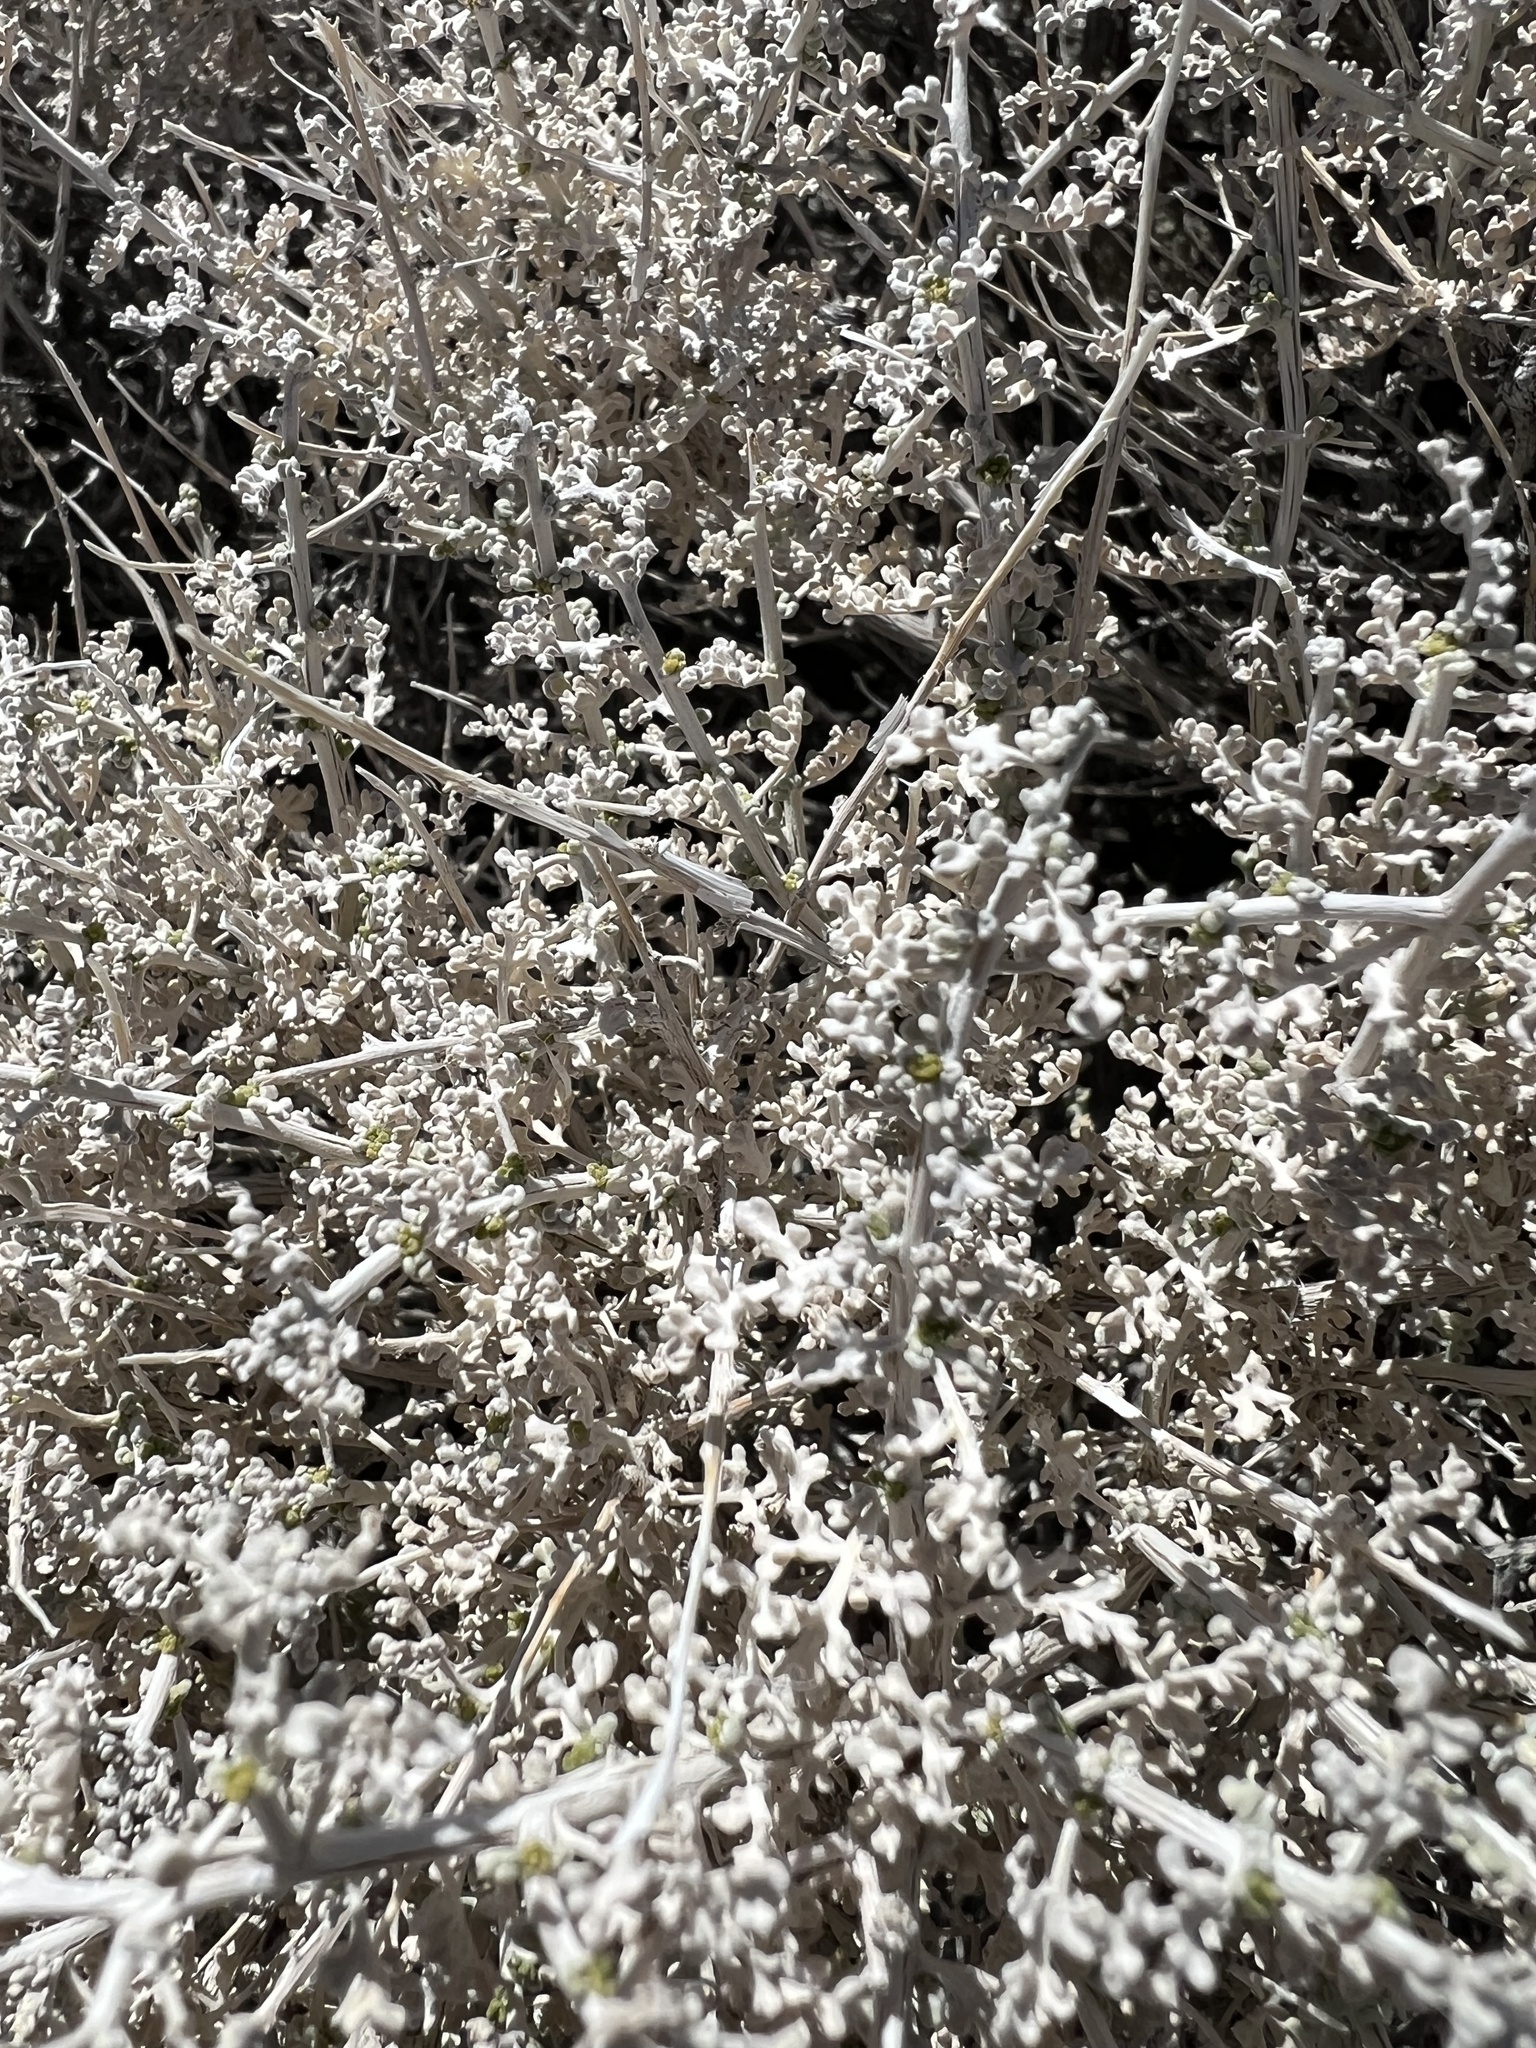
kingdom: Plantae
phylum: Tracheophyta
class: Magnoliopsida
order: Asterales
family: Asteraceae
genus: Ambrosia
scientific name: Ambrosia dumosa
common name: Bur-sage
